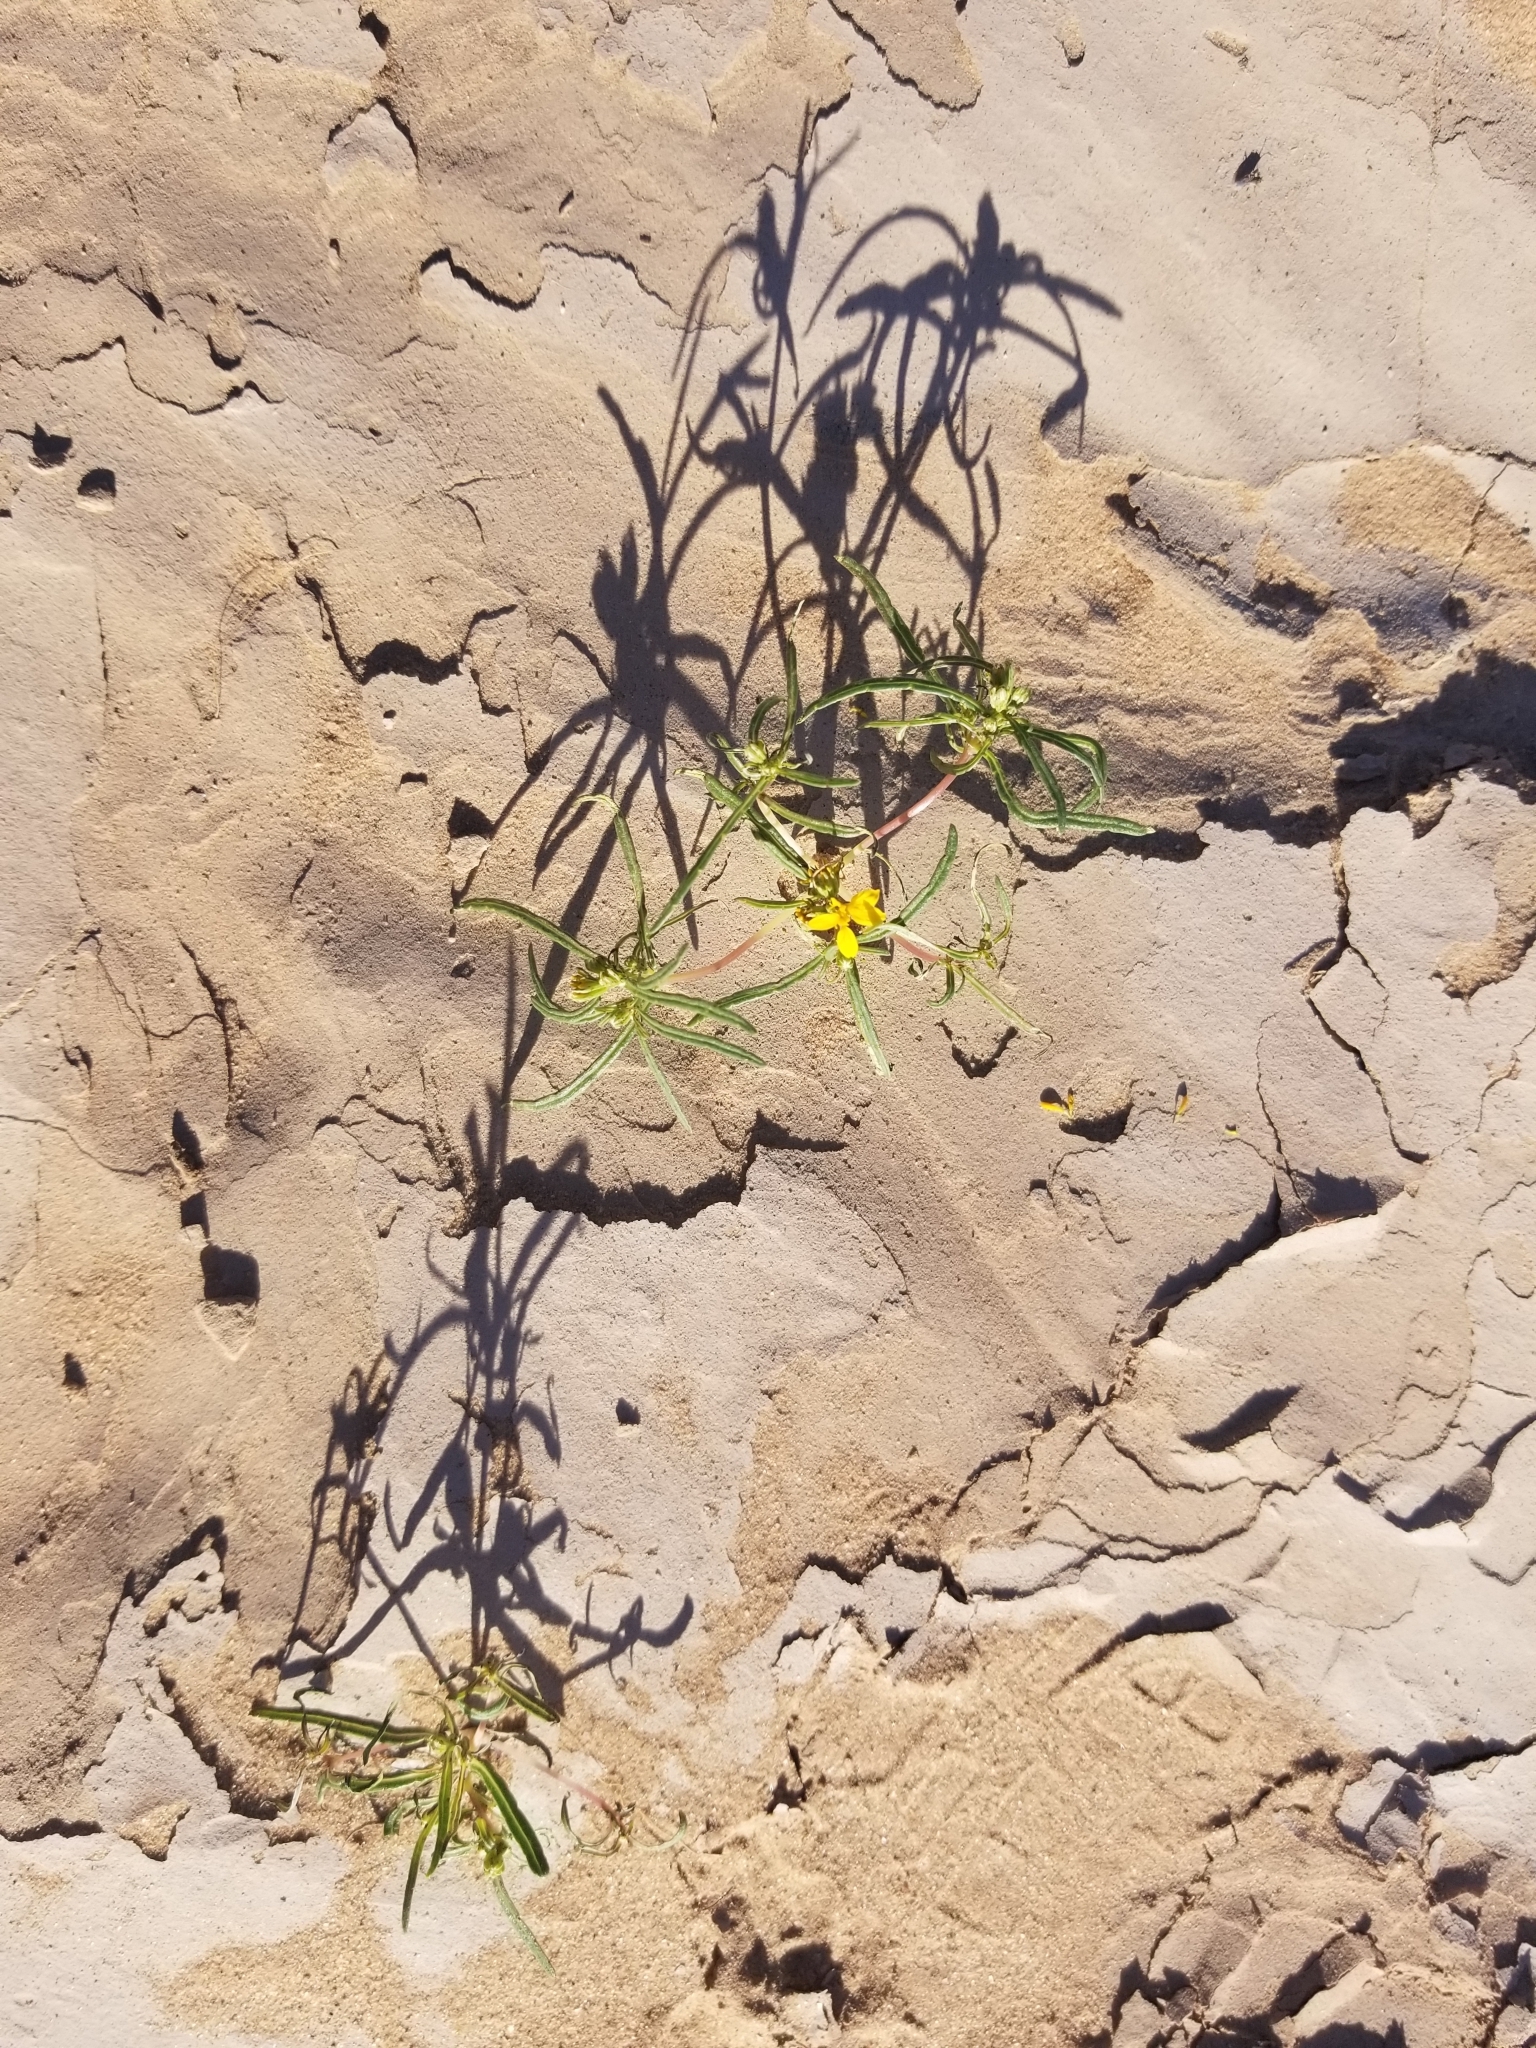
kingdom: Plantae
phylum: Tracheophyta
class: Magnoliopsida
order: Asterales
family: Asteraceae
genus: Pectis
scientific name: Pectis papposa
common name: Many-bristle chinchweed
